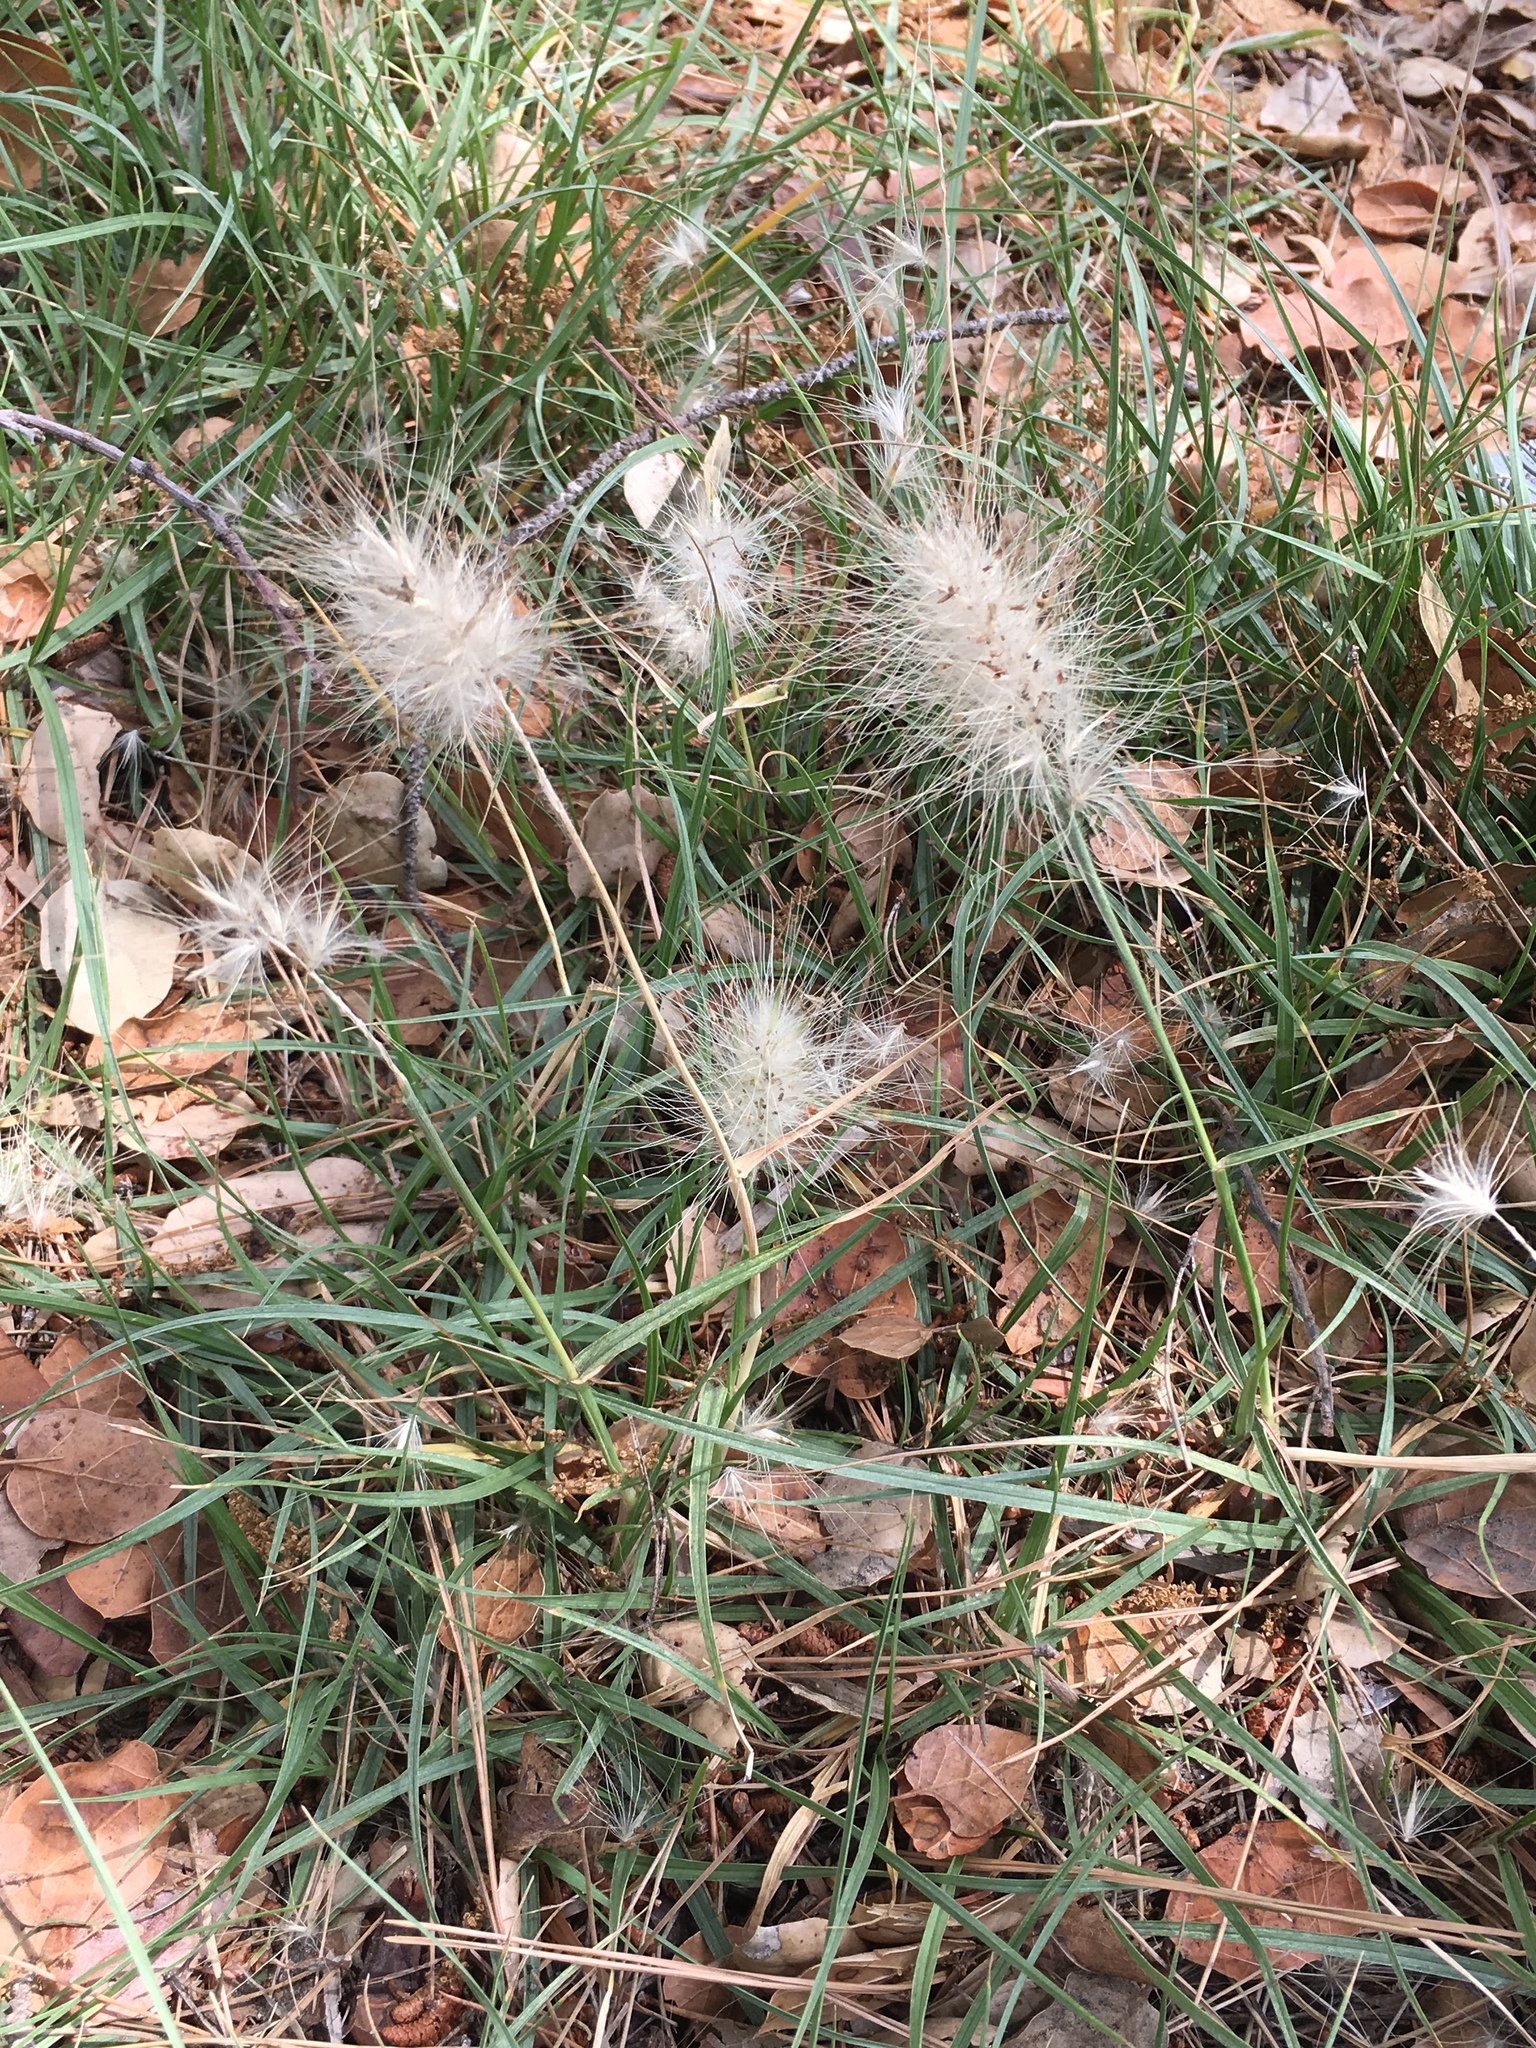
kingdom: Plantae
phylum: Tracheophyta
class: Liliopsida
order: Poales
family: Poaceae
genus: Cenchrus
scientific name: Cenchrus longisetus
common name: Feathertop
